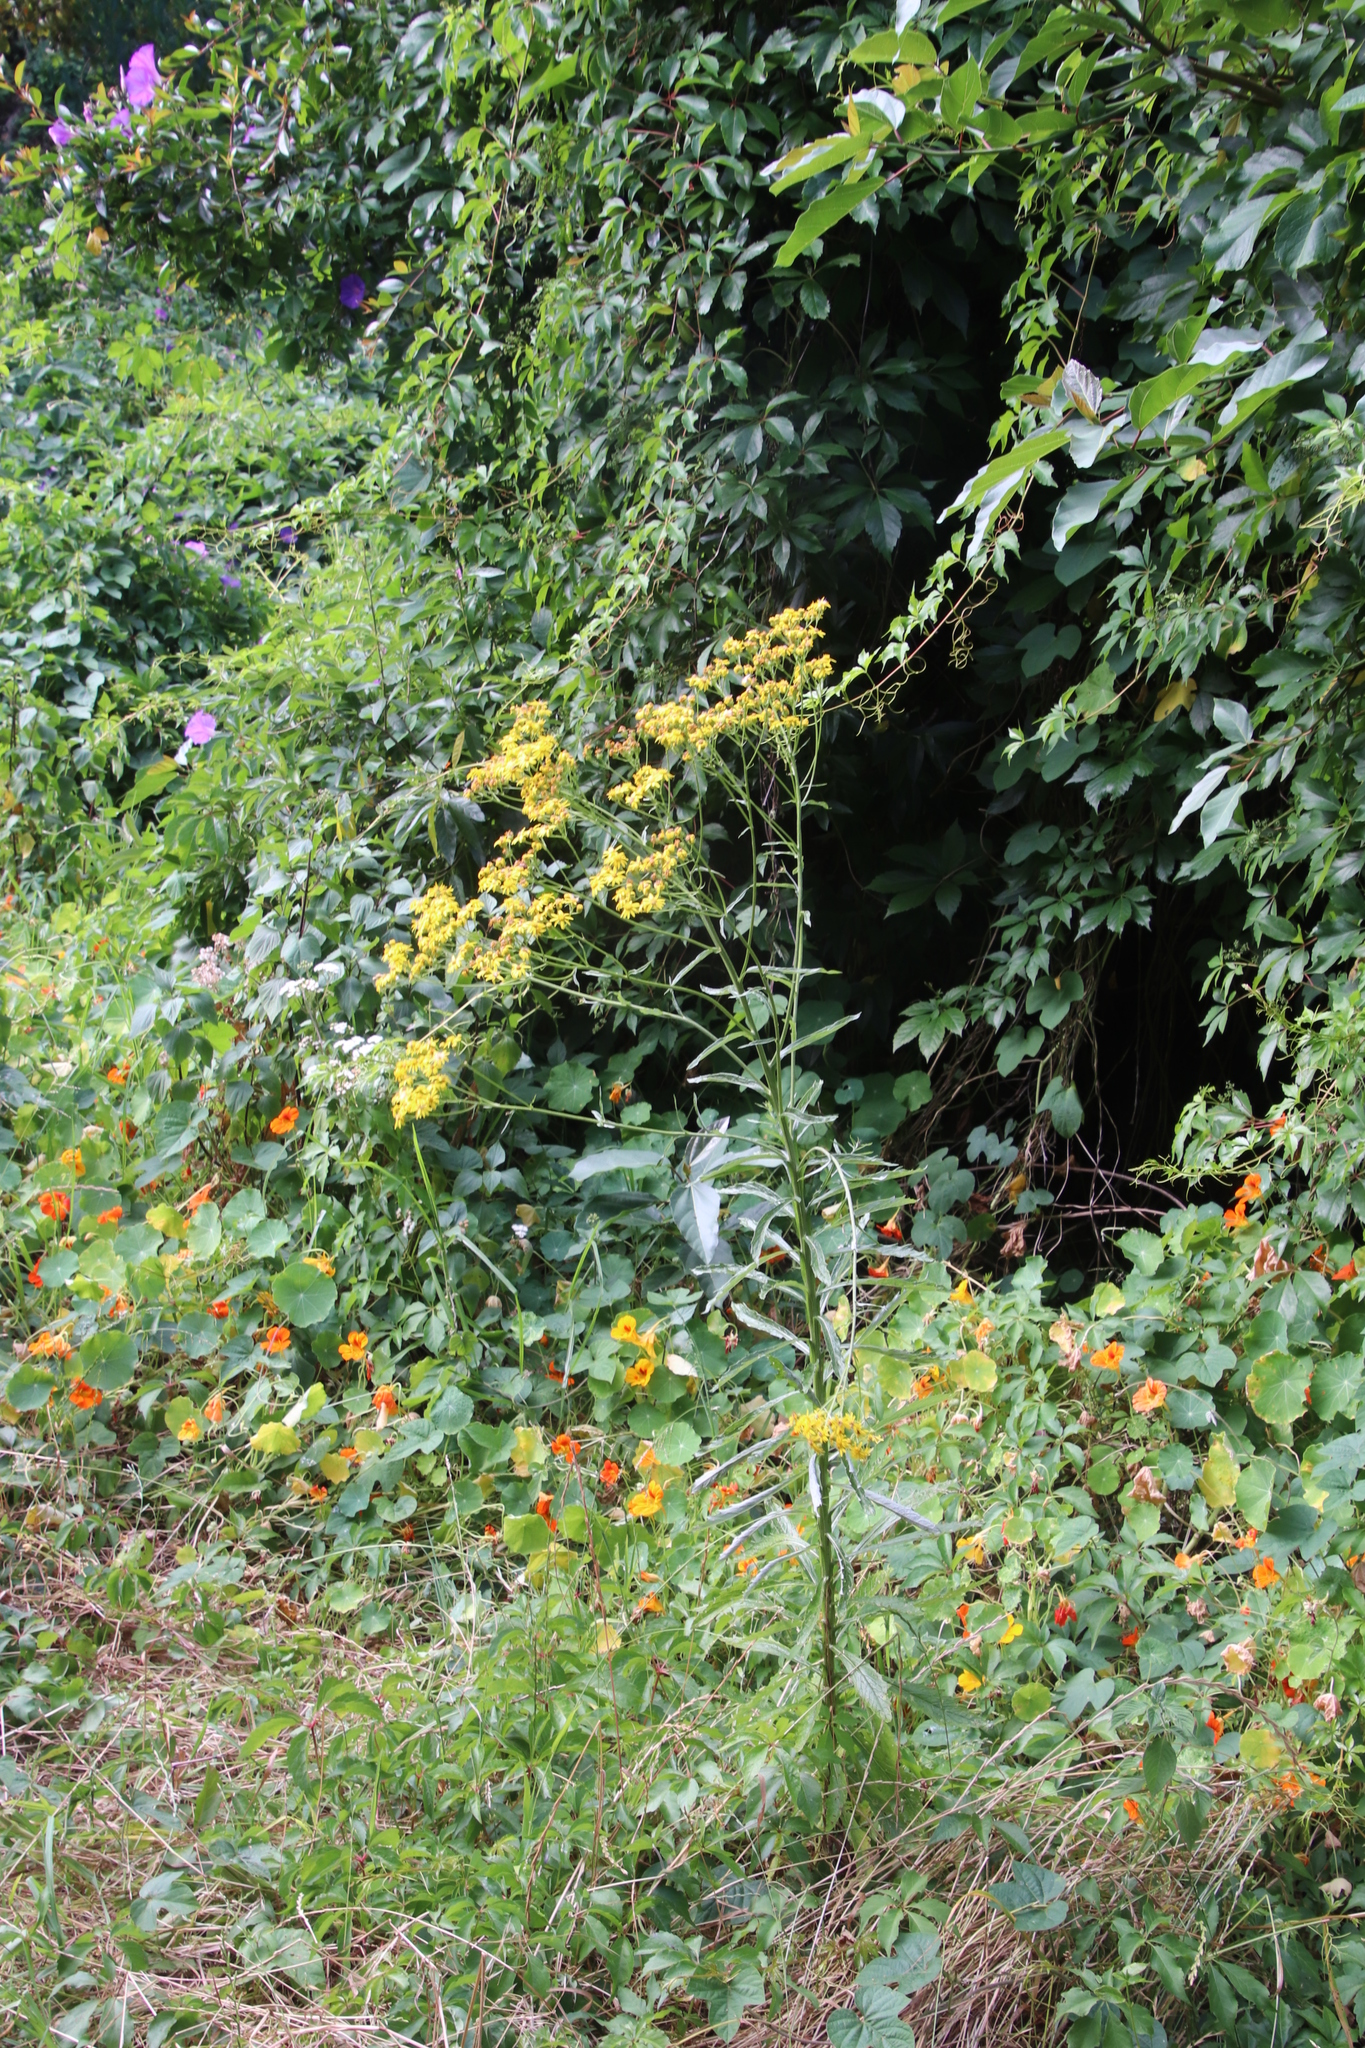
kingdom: Plantae
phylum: Tracheophyta
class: Magnoliopsida
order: Asterales
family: Asteraceae
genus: Senecio
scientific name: Senecio pterophorus
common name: Shoddy ragwort
